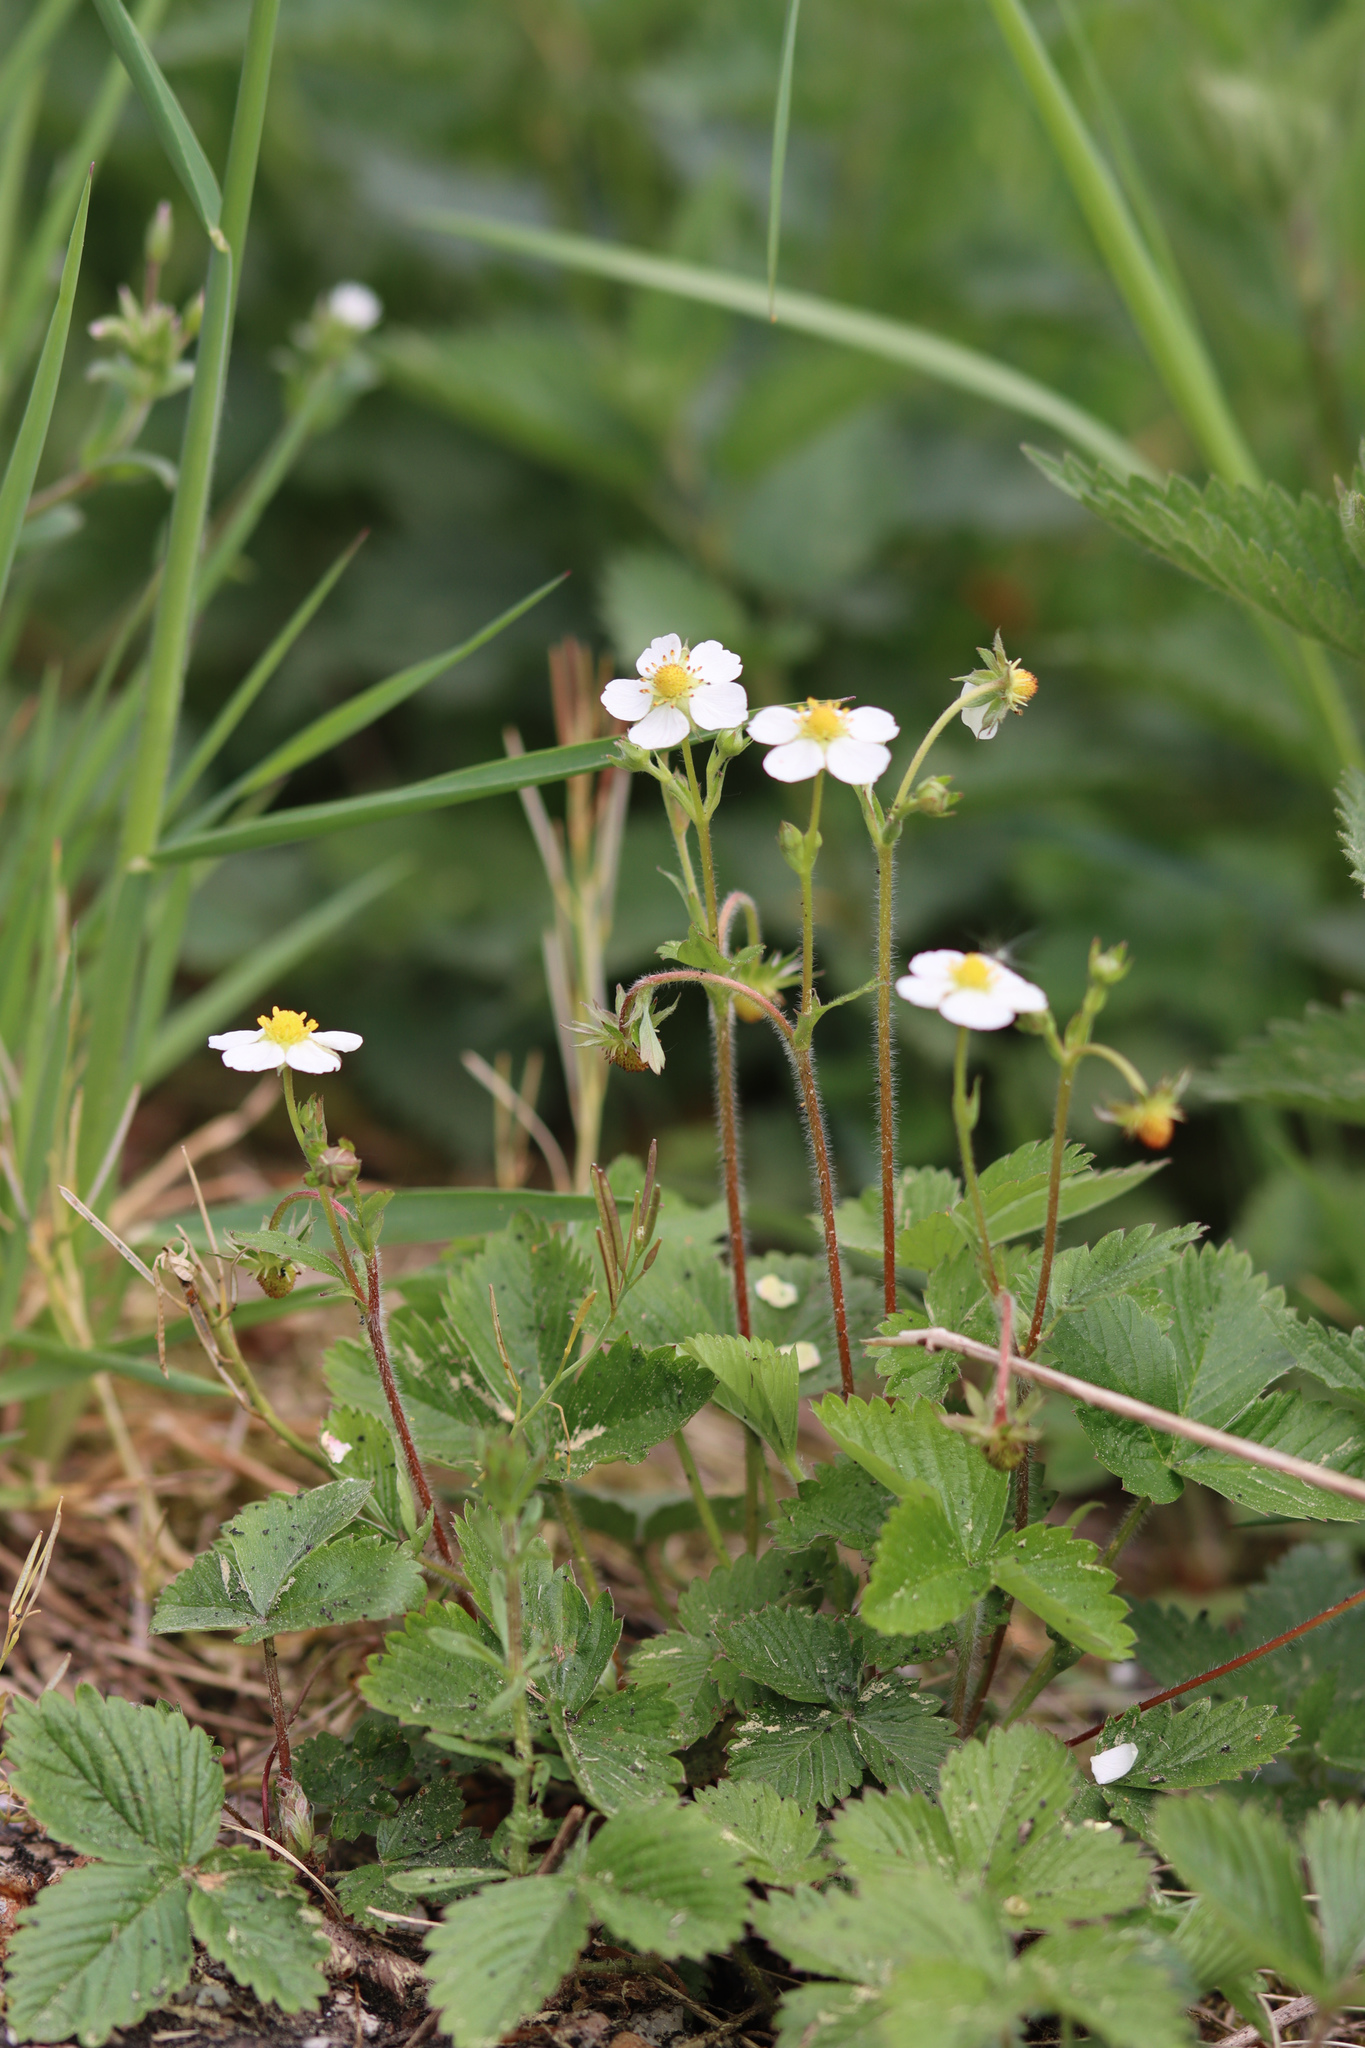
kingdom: Plantae
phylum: Tracheophyta
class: Magnoliopsida
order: Rosales
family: Rosaceae
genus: Fragaria
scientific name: Fragaria vesca
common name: Wild strawberry
